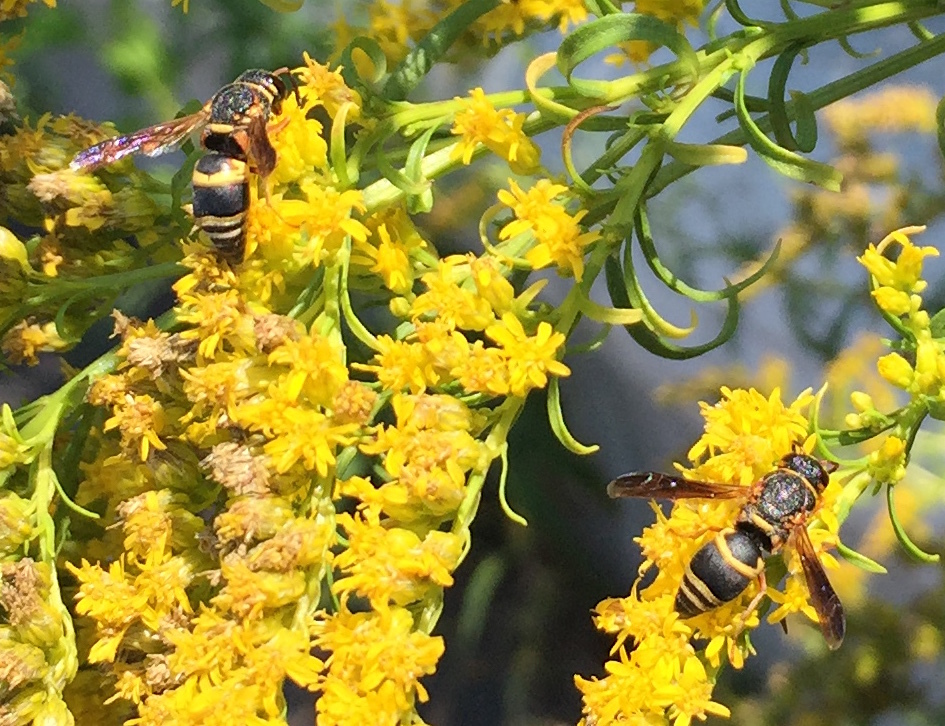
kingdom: Animalia
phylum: Arthropoda
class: Insecta
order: Hymenoptera
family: Eumenidae
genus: Euodynerus
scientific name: Euodynerus hidalgo
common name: Wasp
